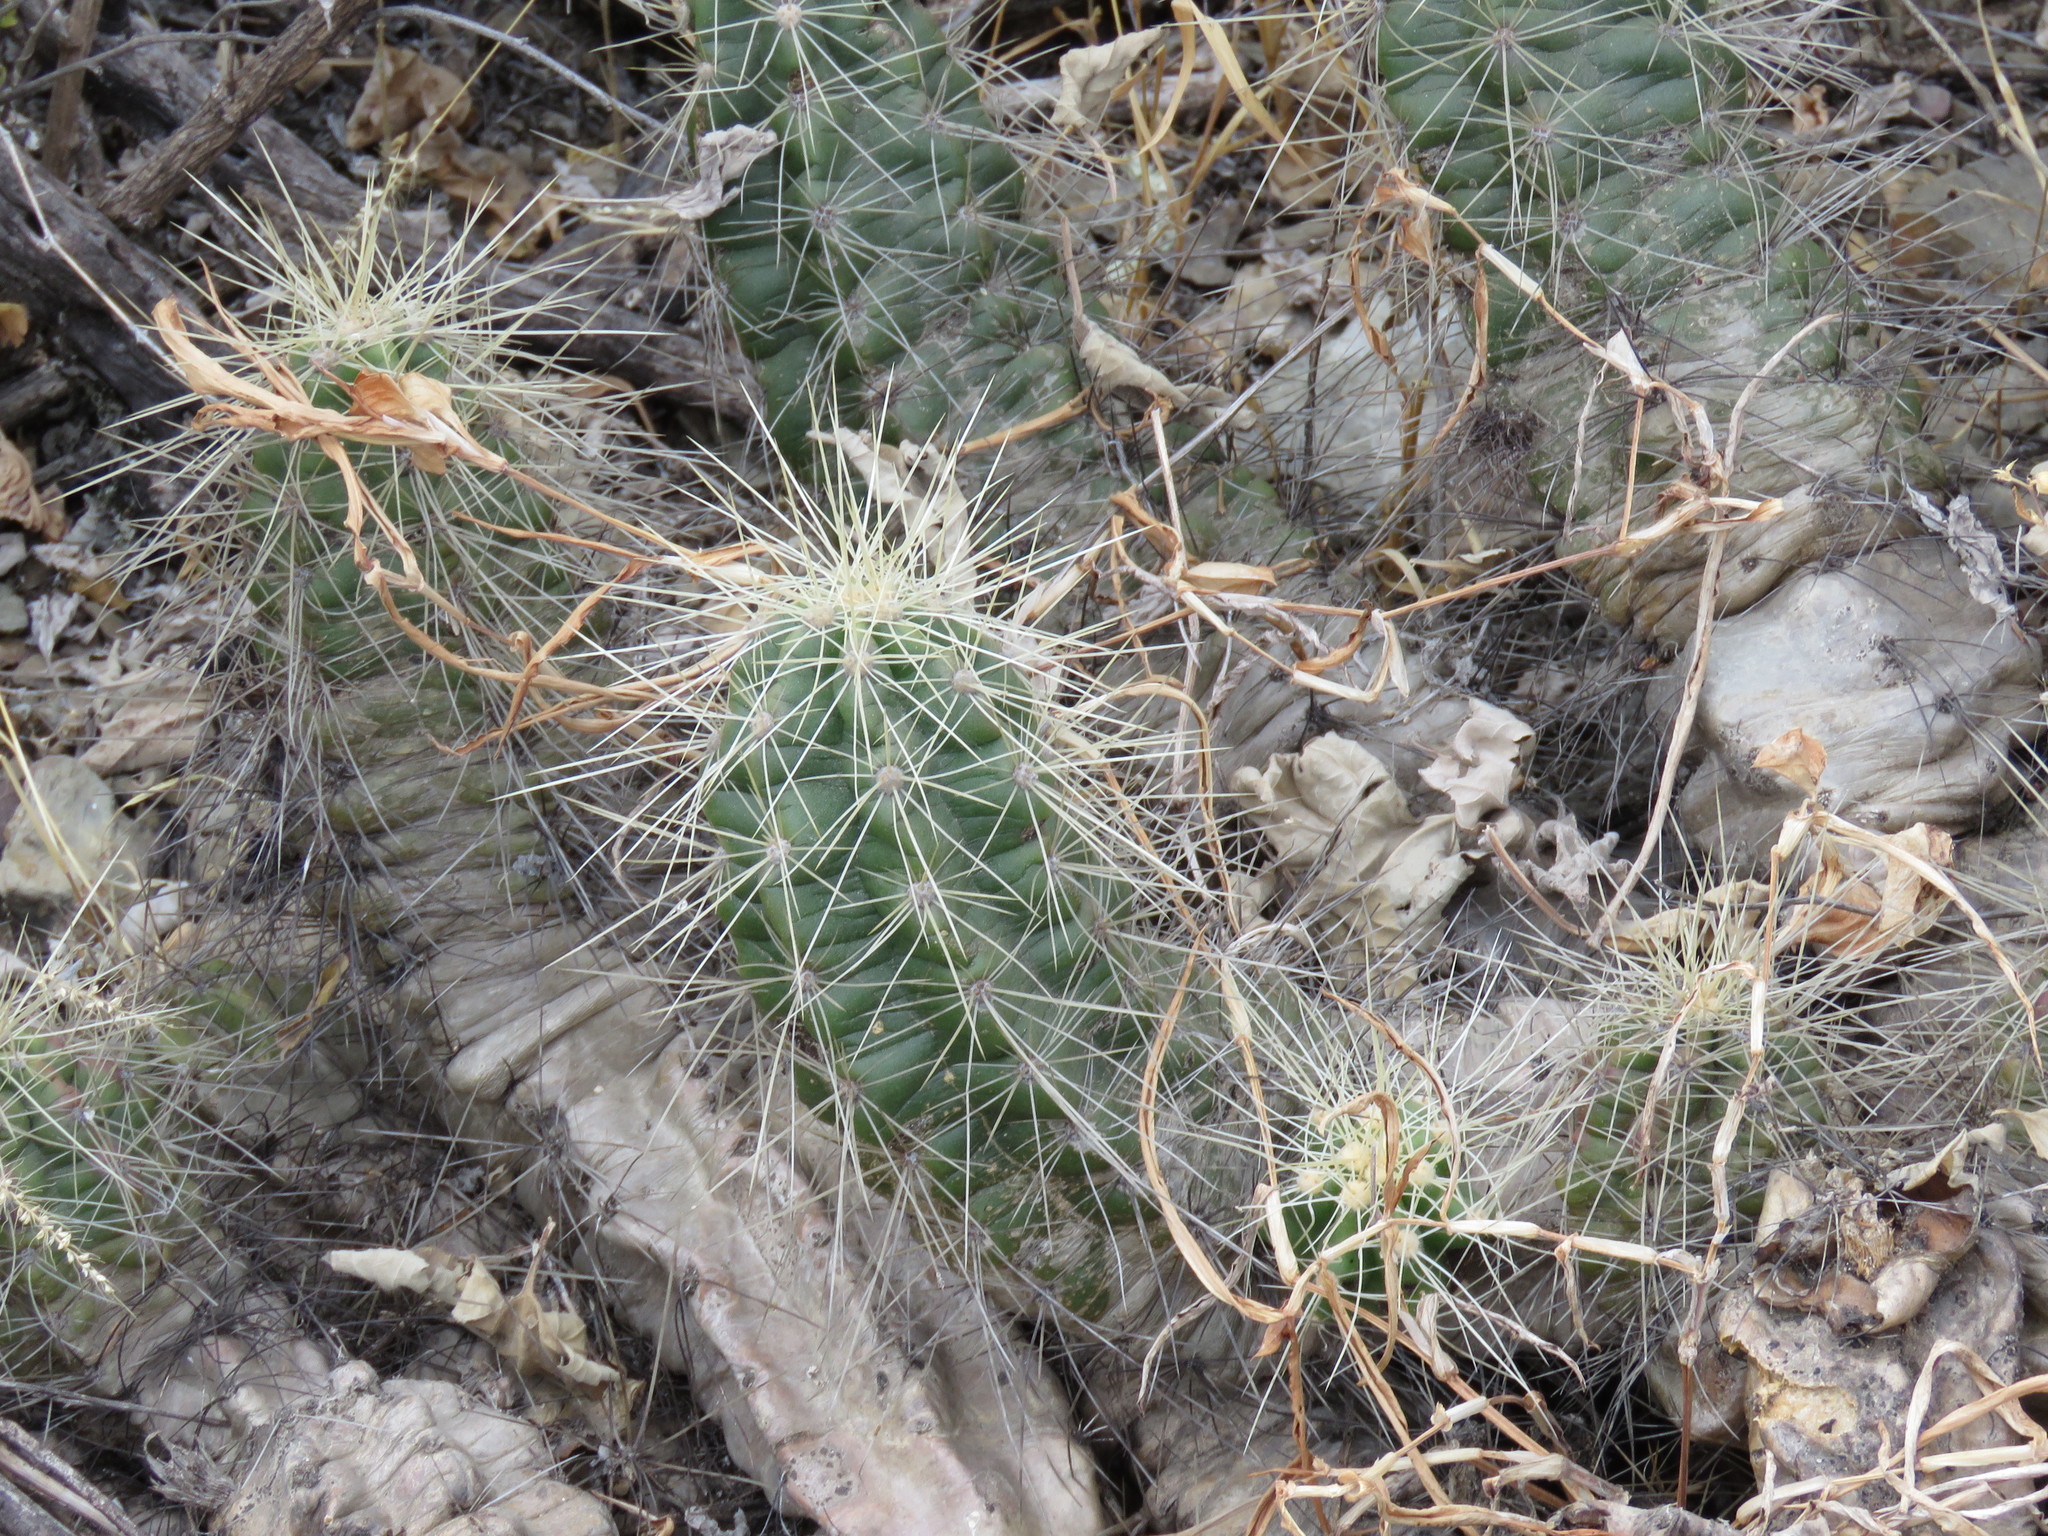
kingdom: Plantae
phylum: Tracheophyta
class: Magnoliopsida
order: Caryophyllales
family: Cactaceae
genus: Echinocereus
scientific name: Echinocereus cinerascens
